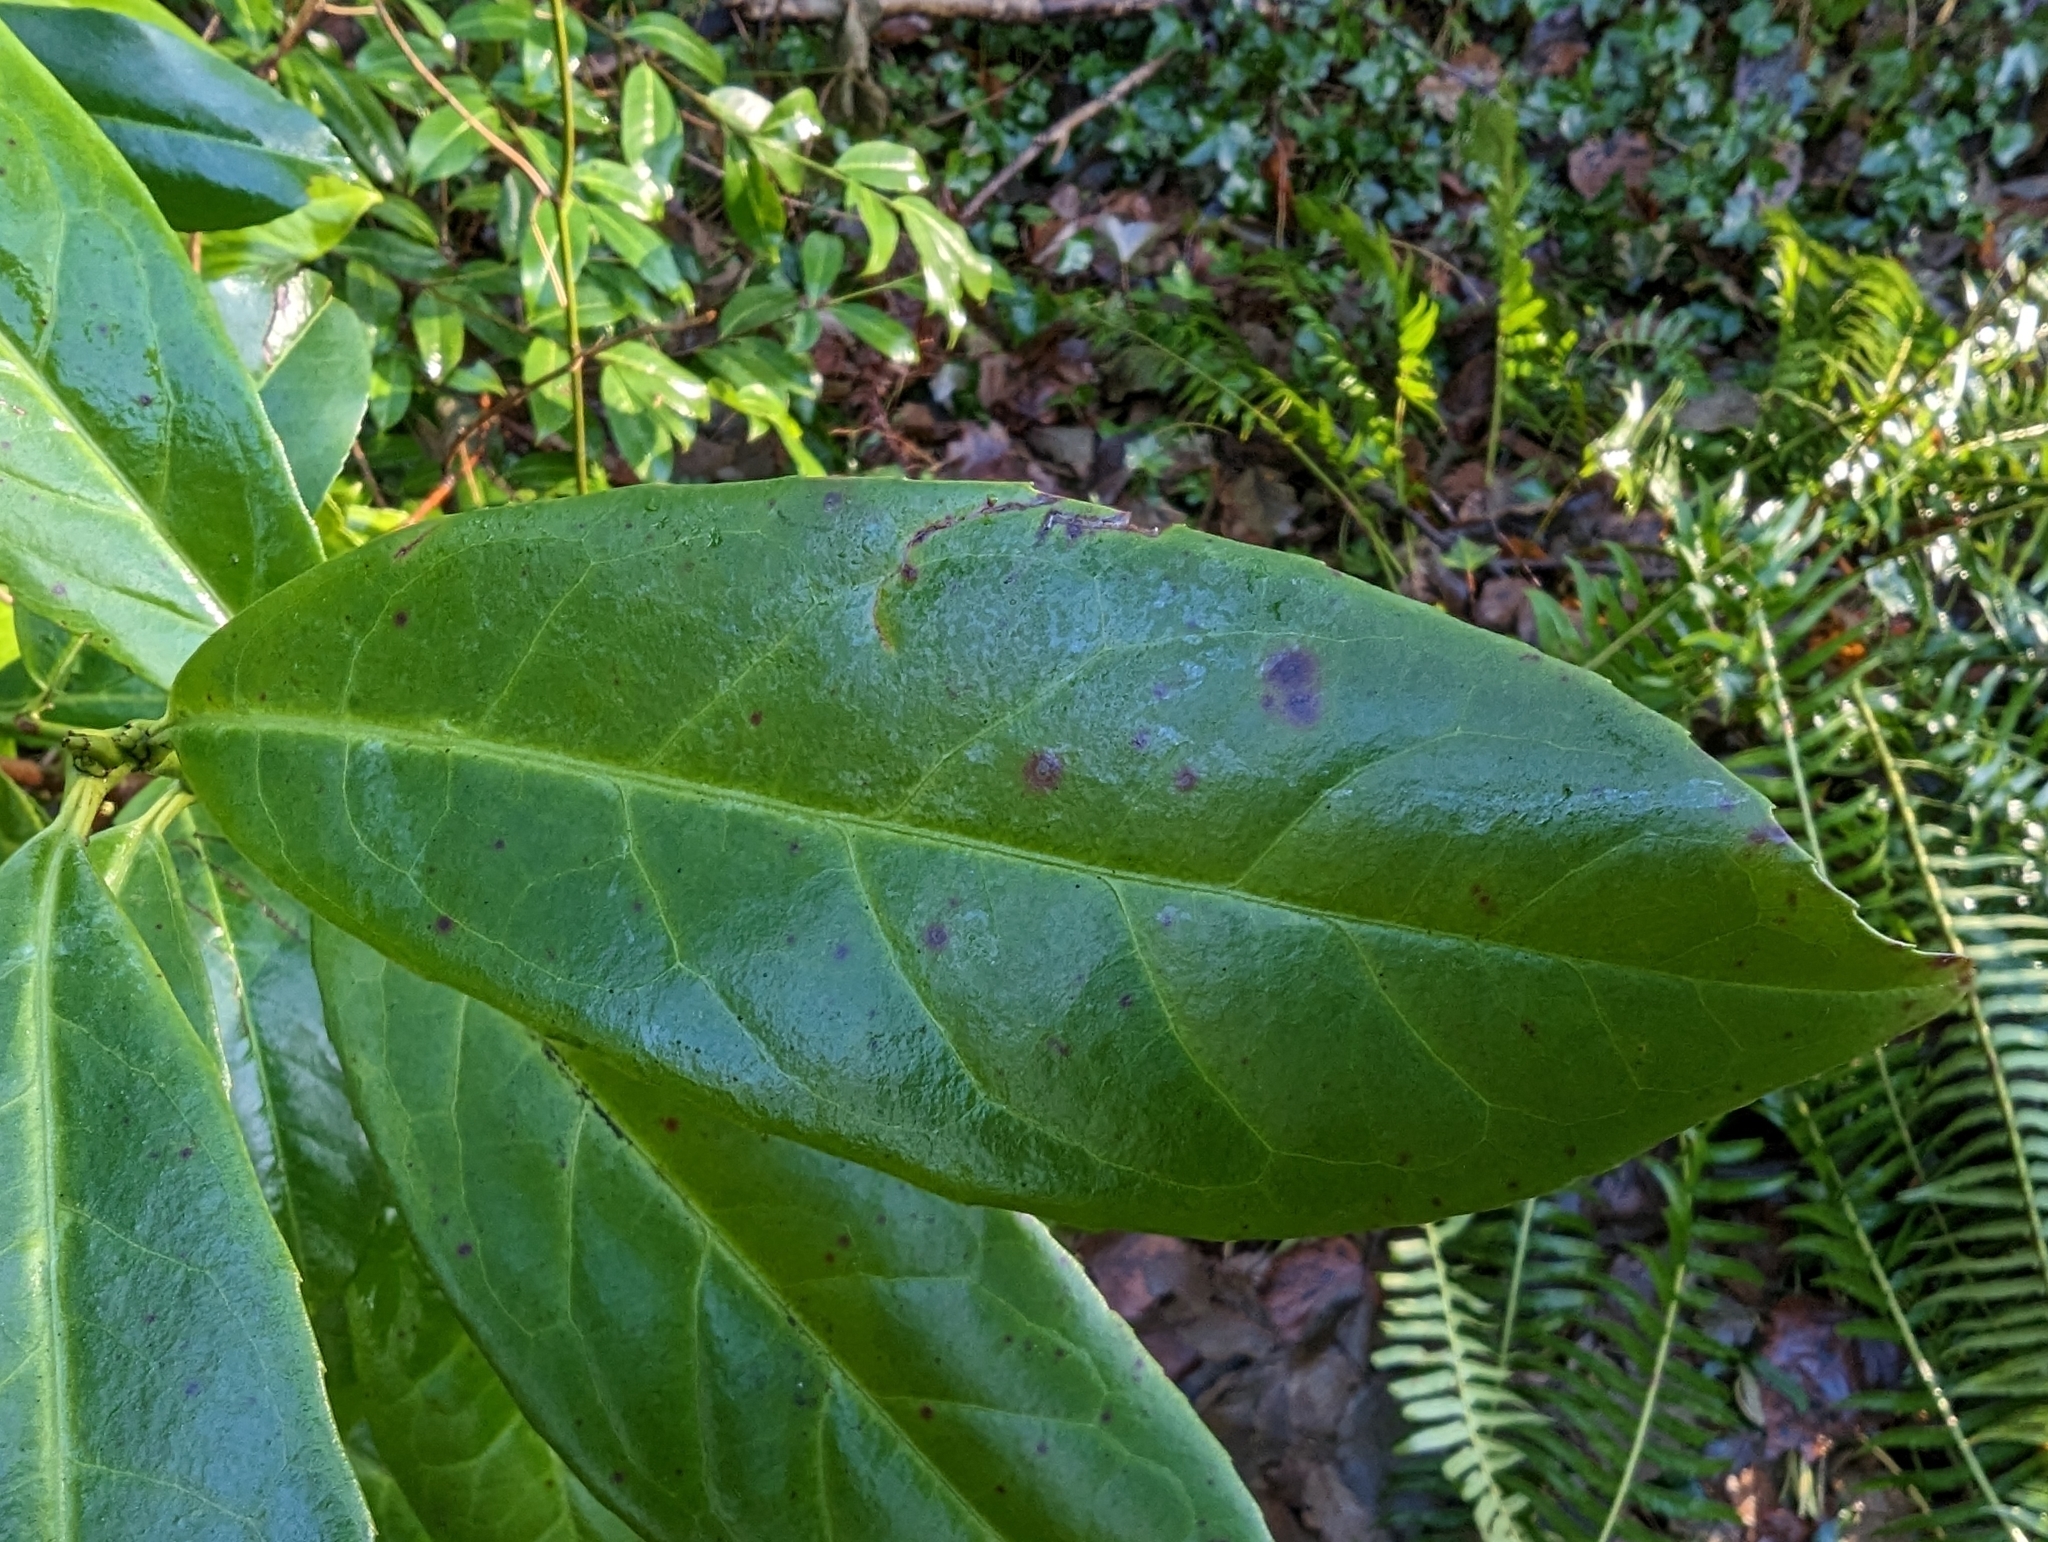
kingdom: Plantae
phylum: Tracheophyta
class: Magnoliopsida
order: Rosales
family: Rosaceae
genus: Prunus
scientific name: Prunus laurocerasus
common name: Cherry laurel
